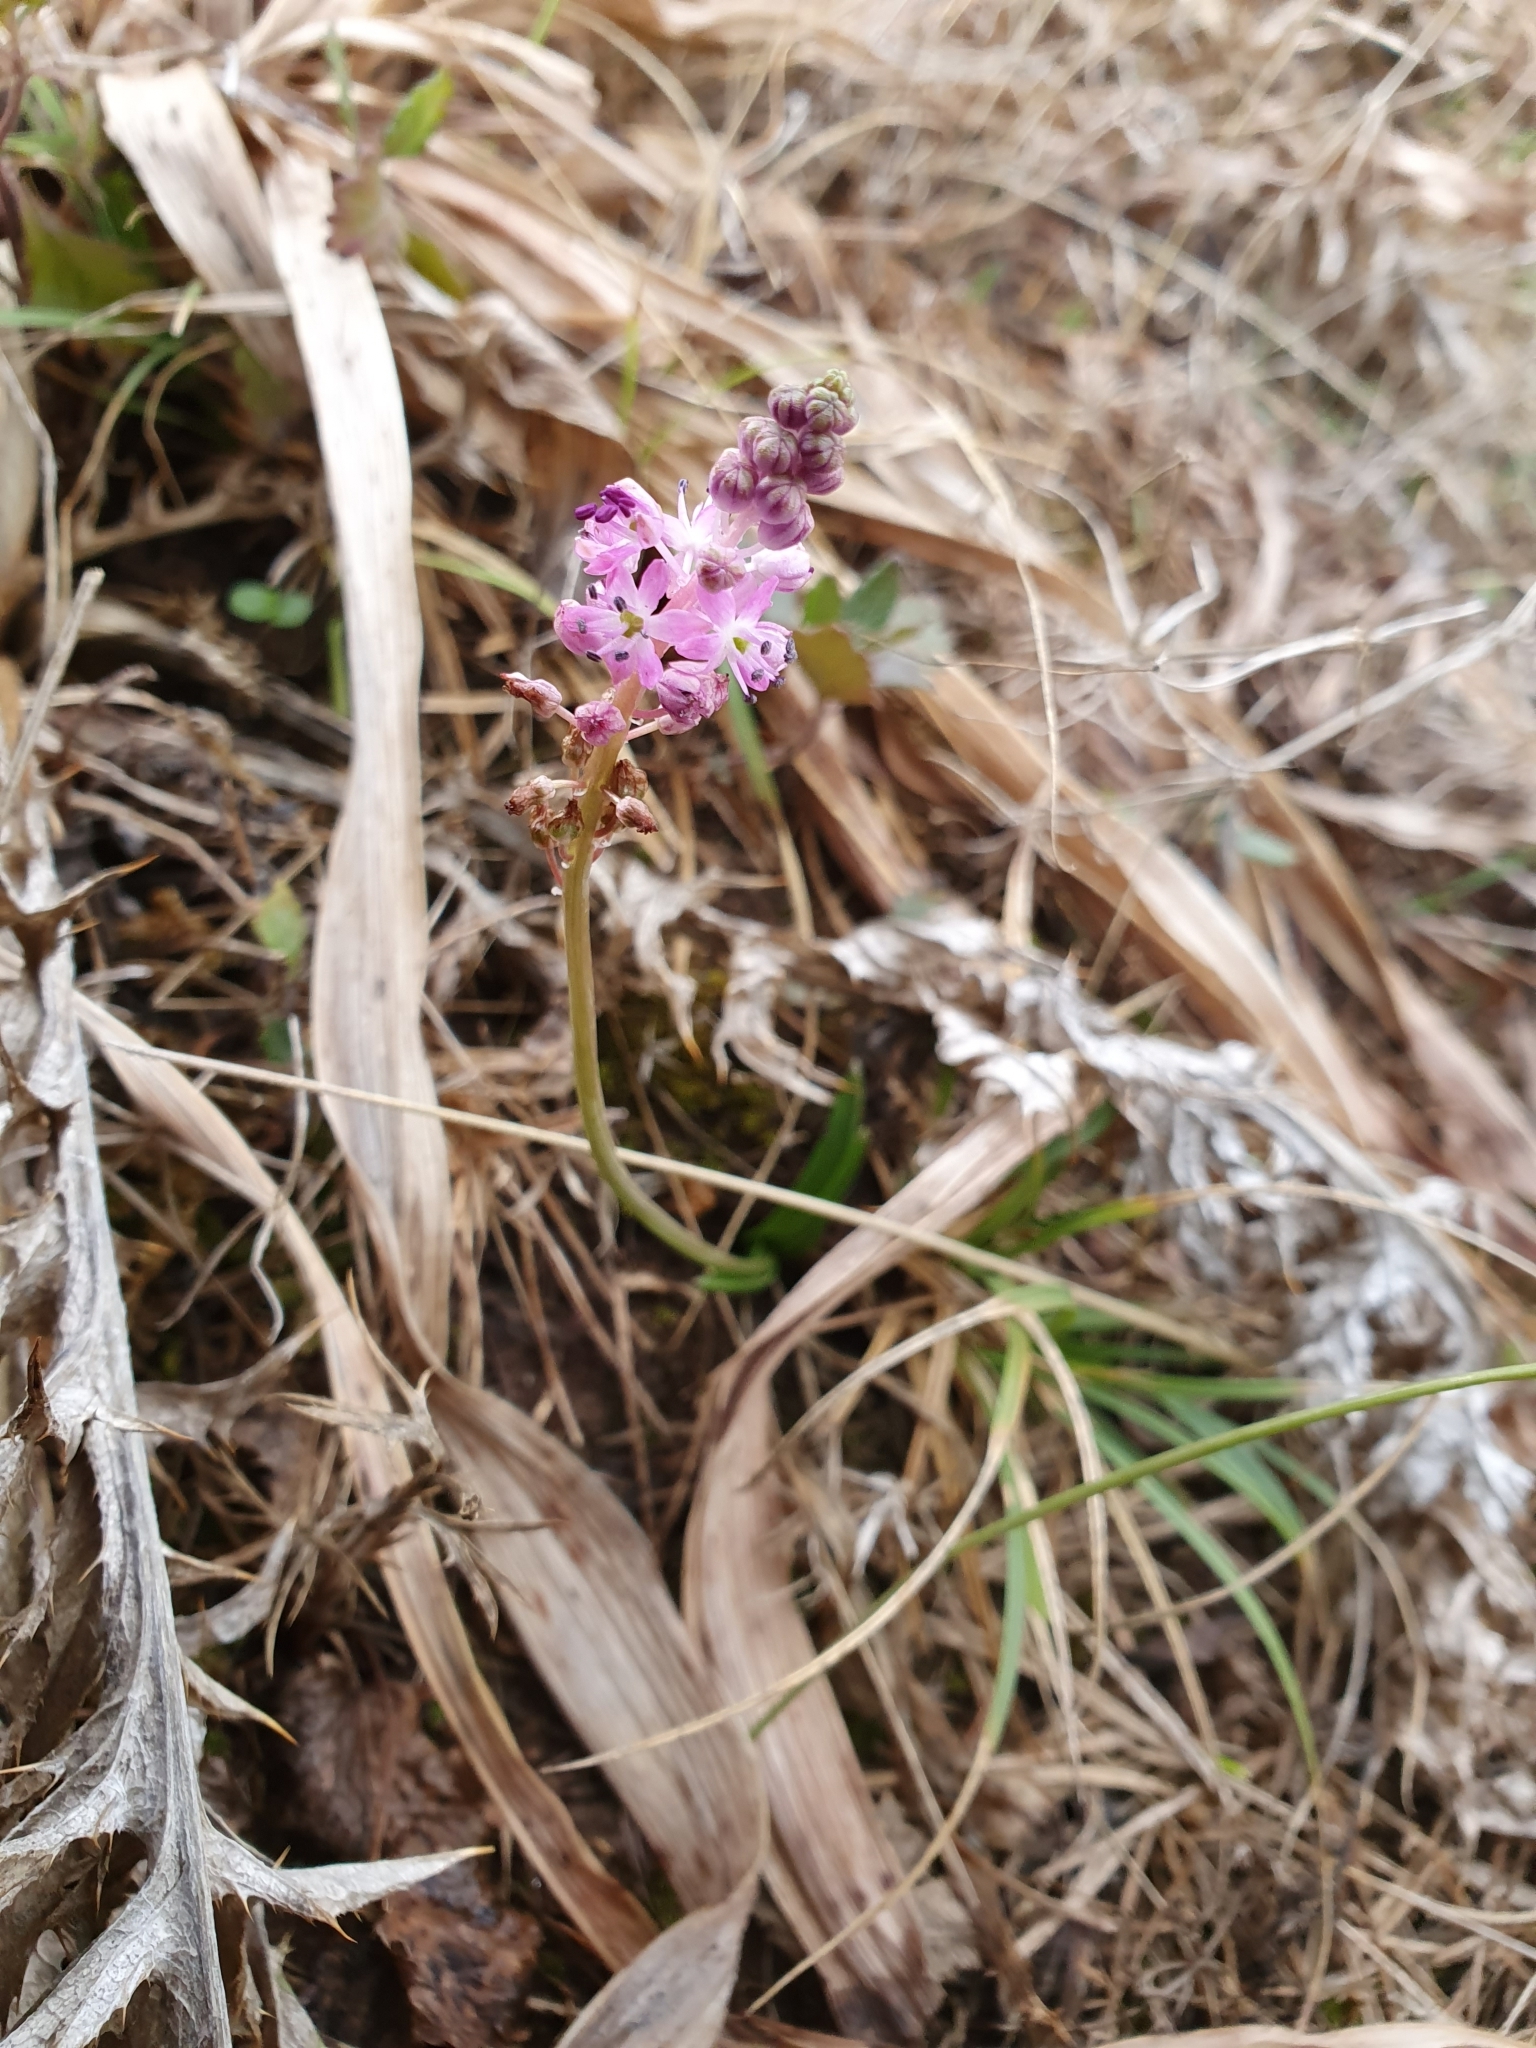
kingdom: Plantae
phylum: Tracheophyta
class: Liliopsida
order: Asparagales
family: Asparagaceae
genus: Barnardia
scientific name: Barnardia numidica
